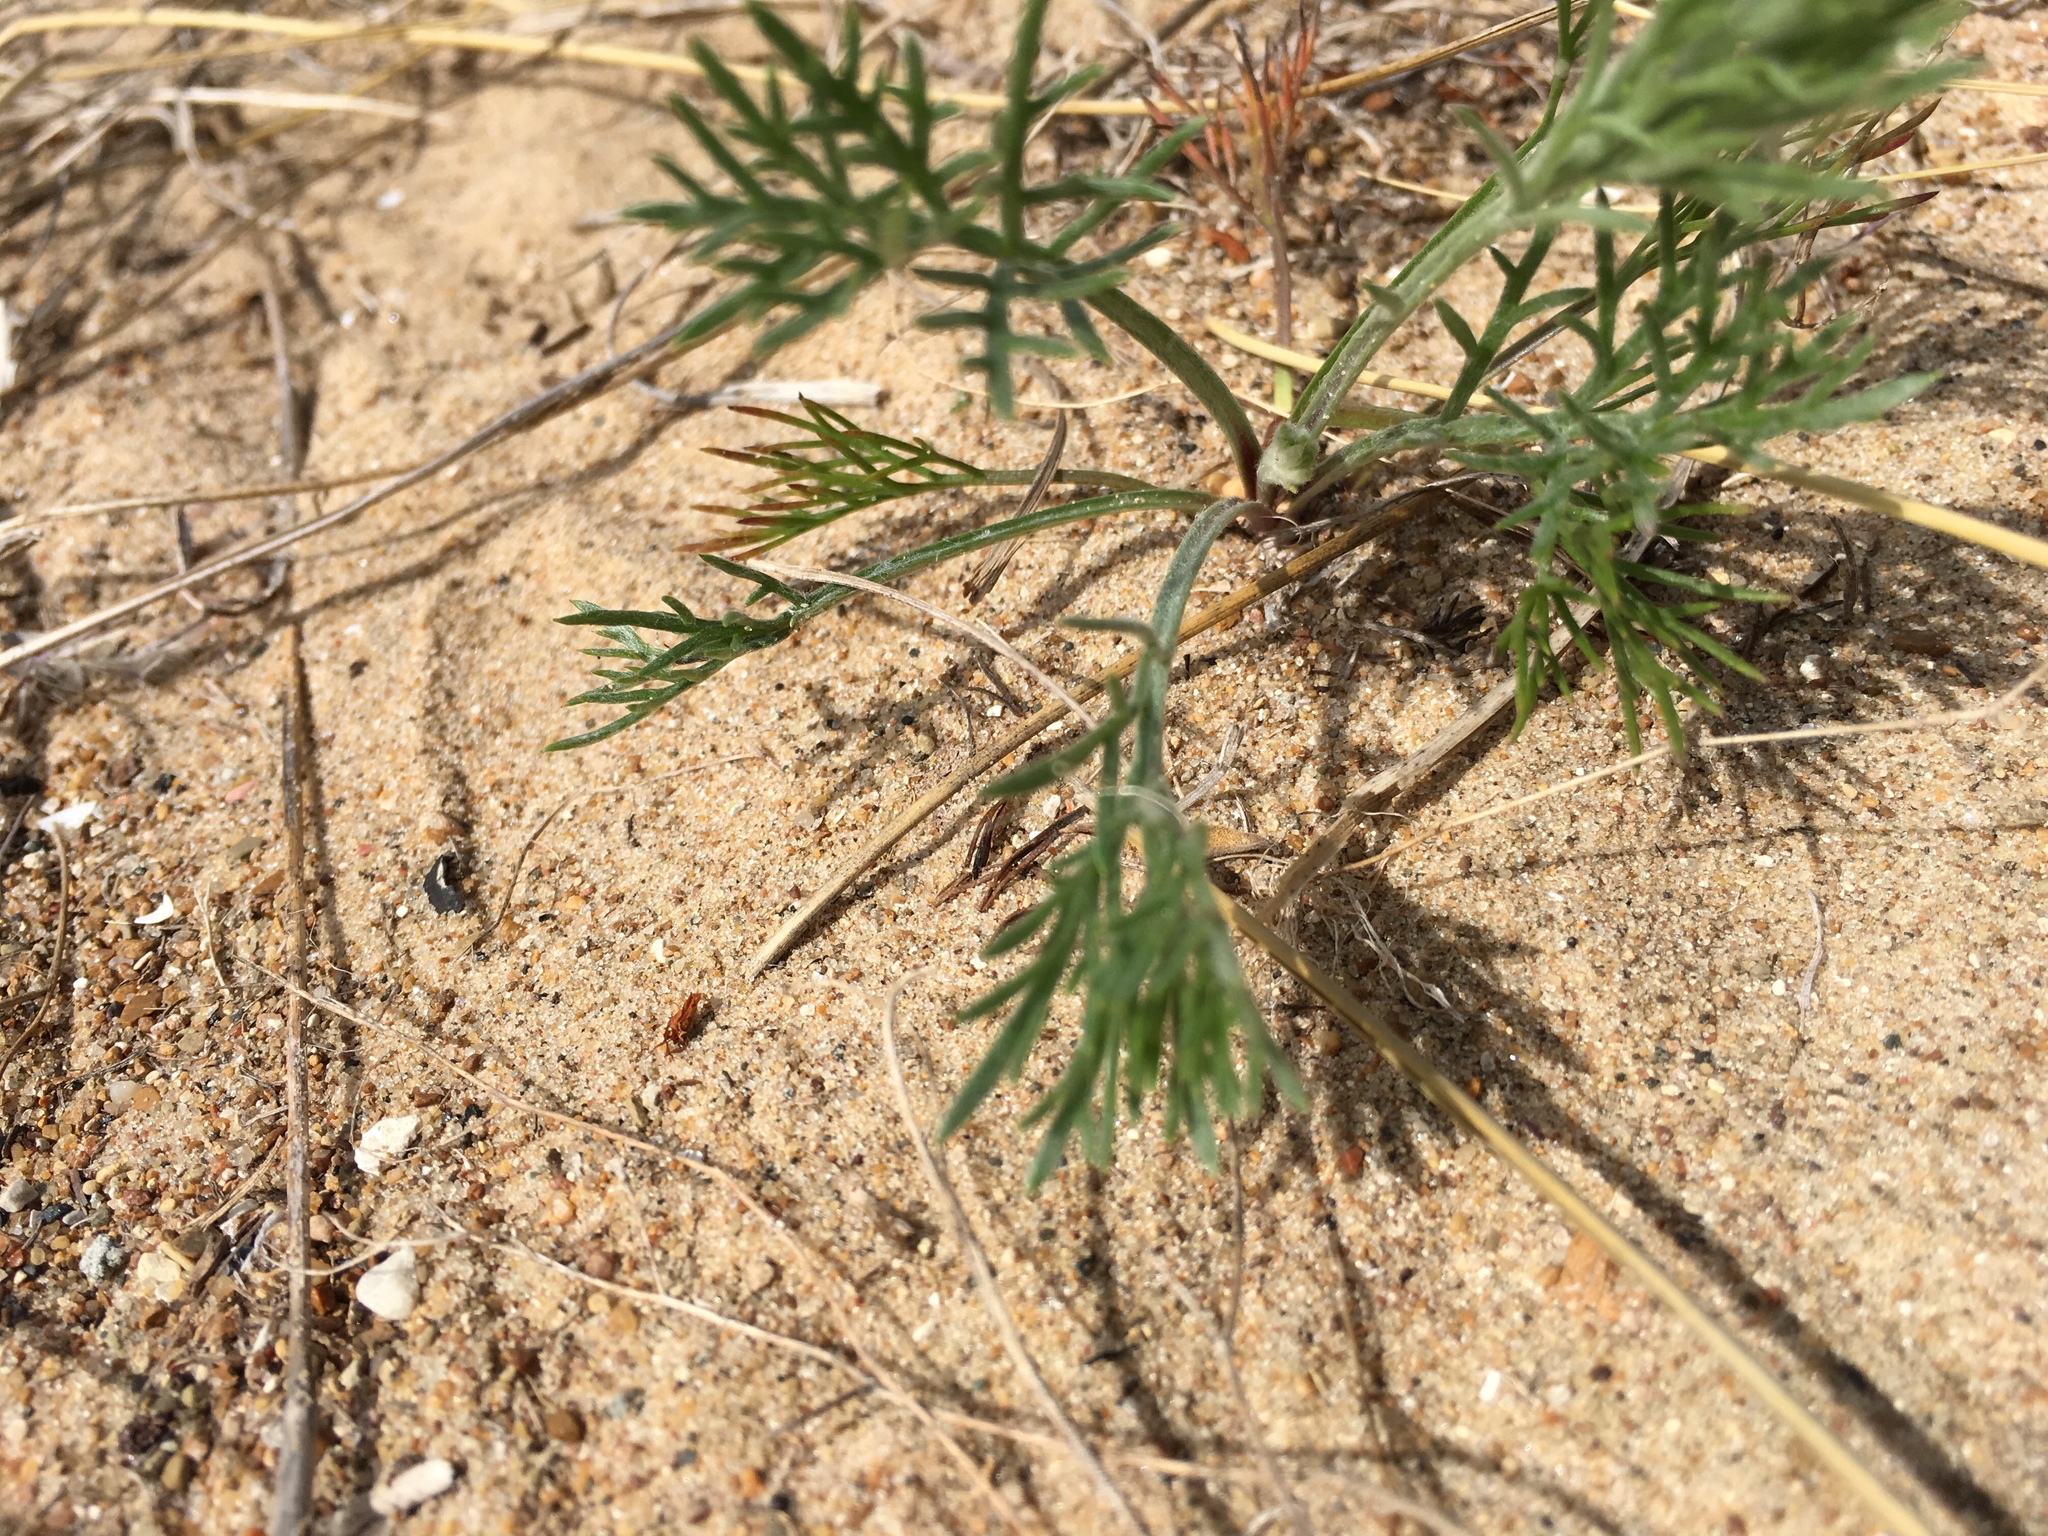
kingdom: Plantae
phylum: Tracheophyta
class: Magnoliopsida
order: Asterales
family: Asteraceae
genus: Artemisia
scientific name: Artemisia campestris
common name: Field wormwood
